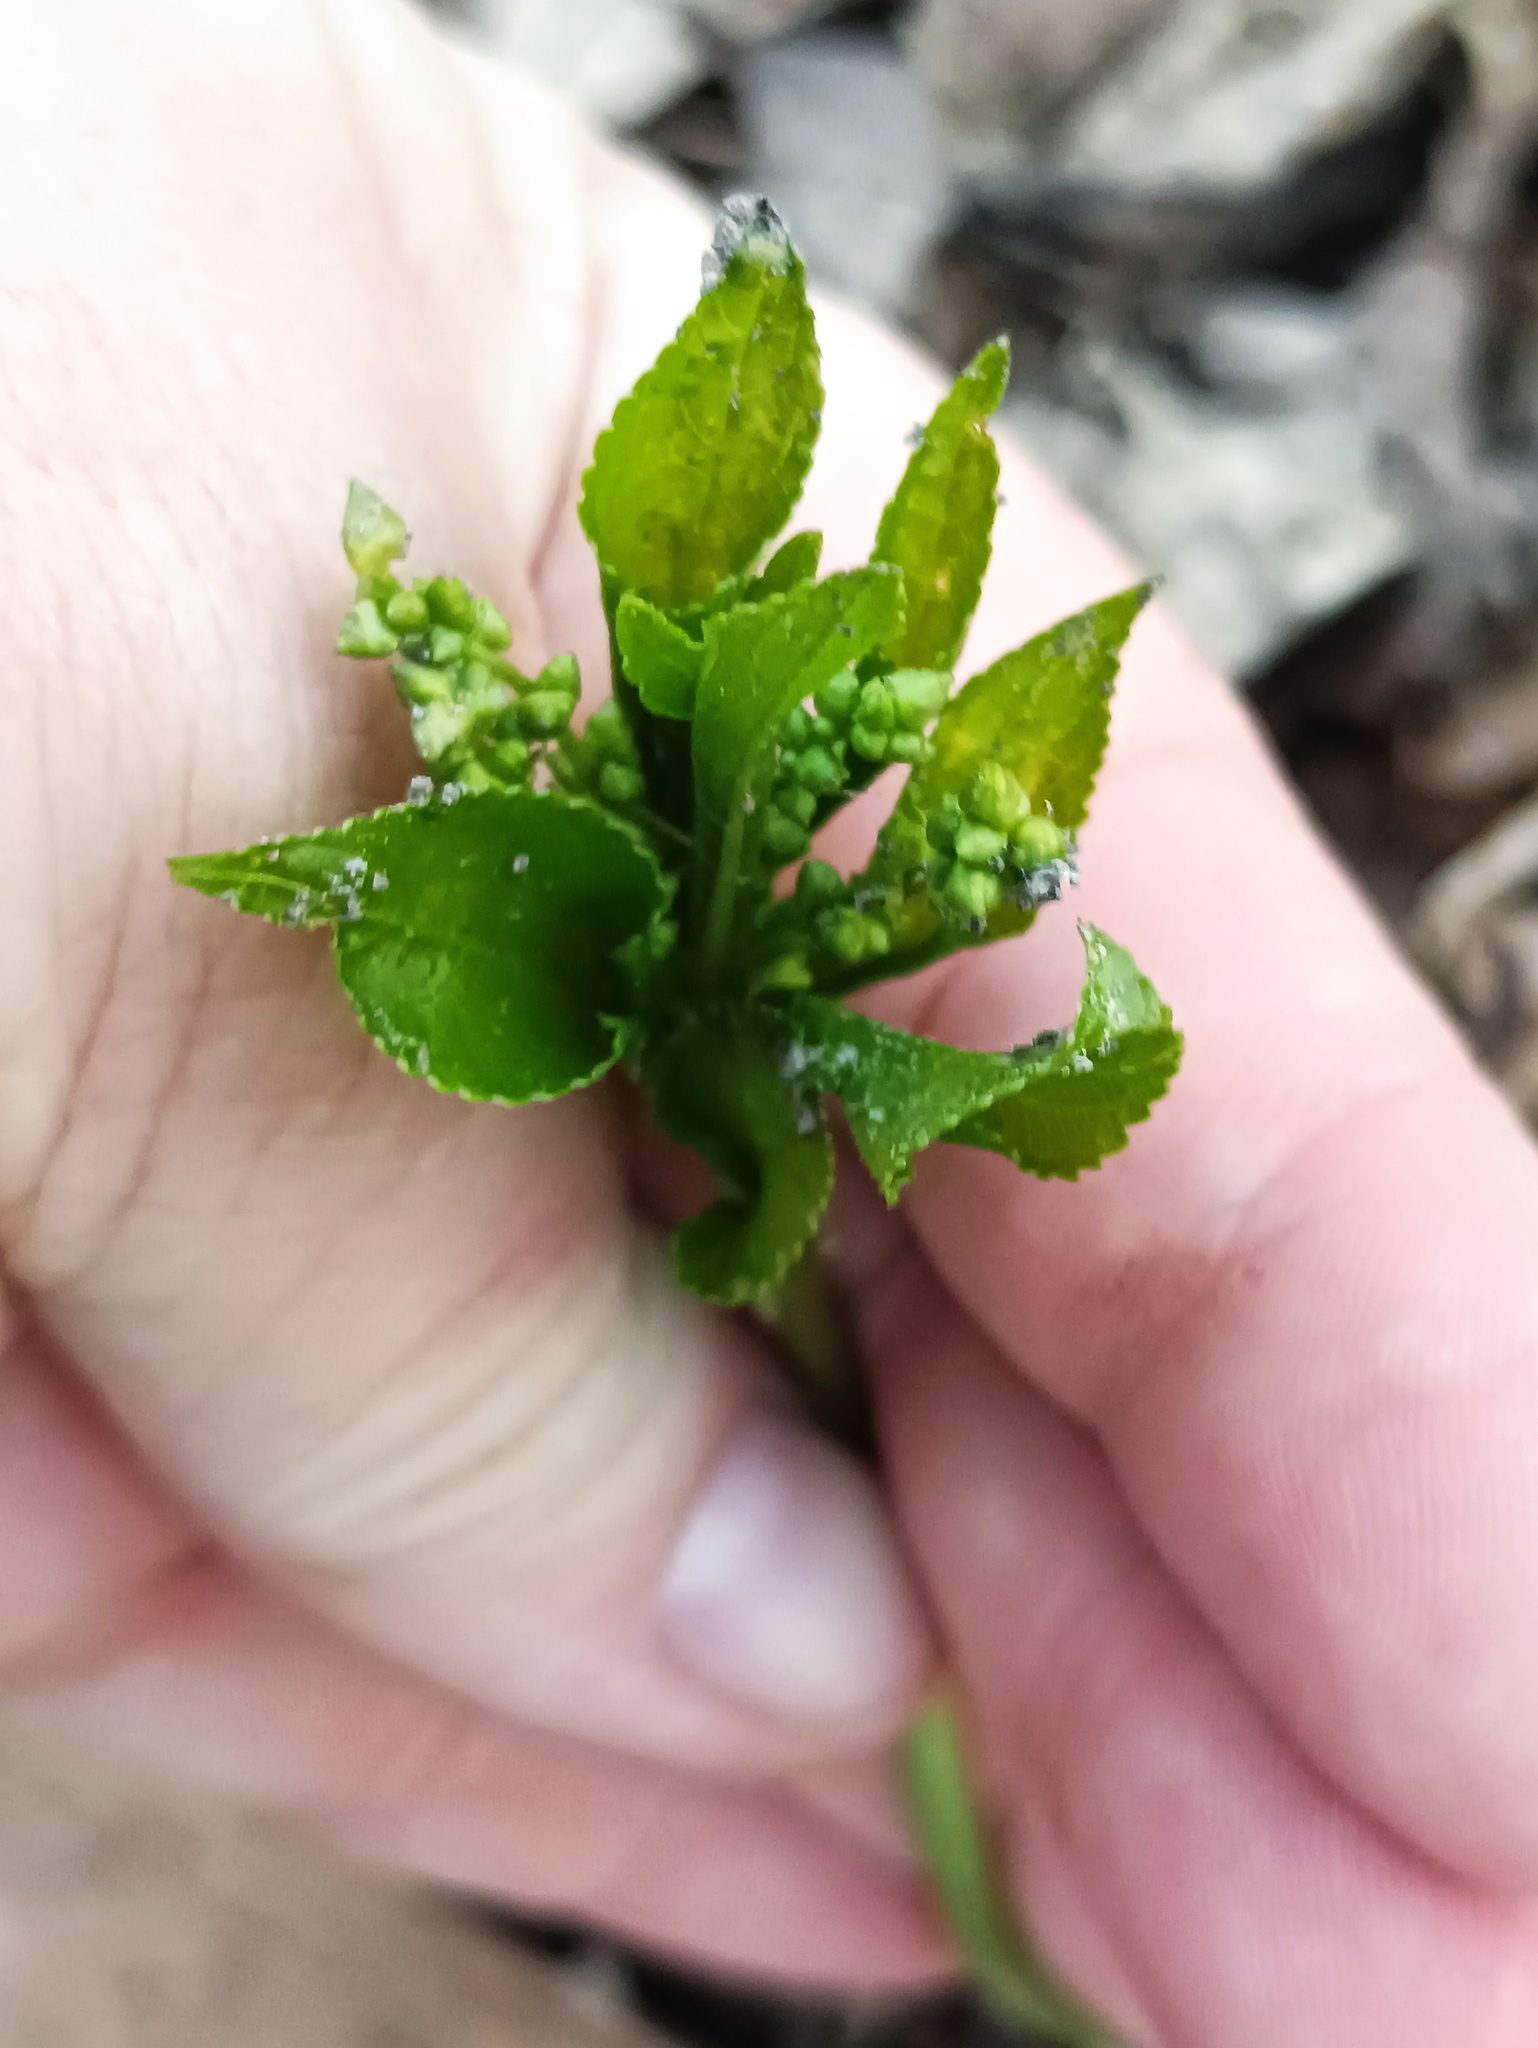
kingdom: Plantae
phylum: Tracheophyta
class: Magnoliopsida
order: Malpighiales
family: Euphorbiaceae
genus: Mercurialis
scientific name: Mercurialis perennis
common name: Dog mercury
